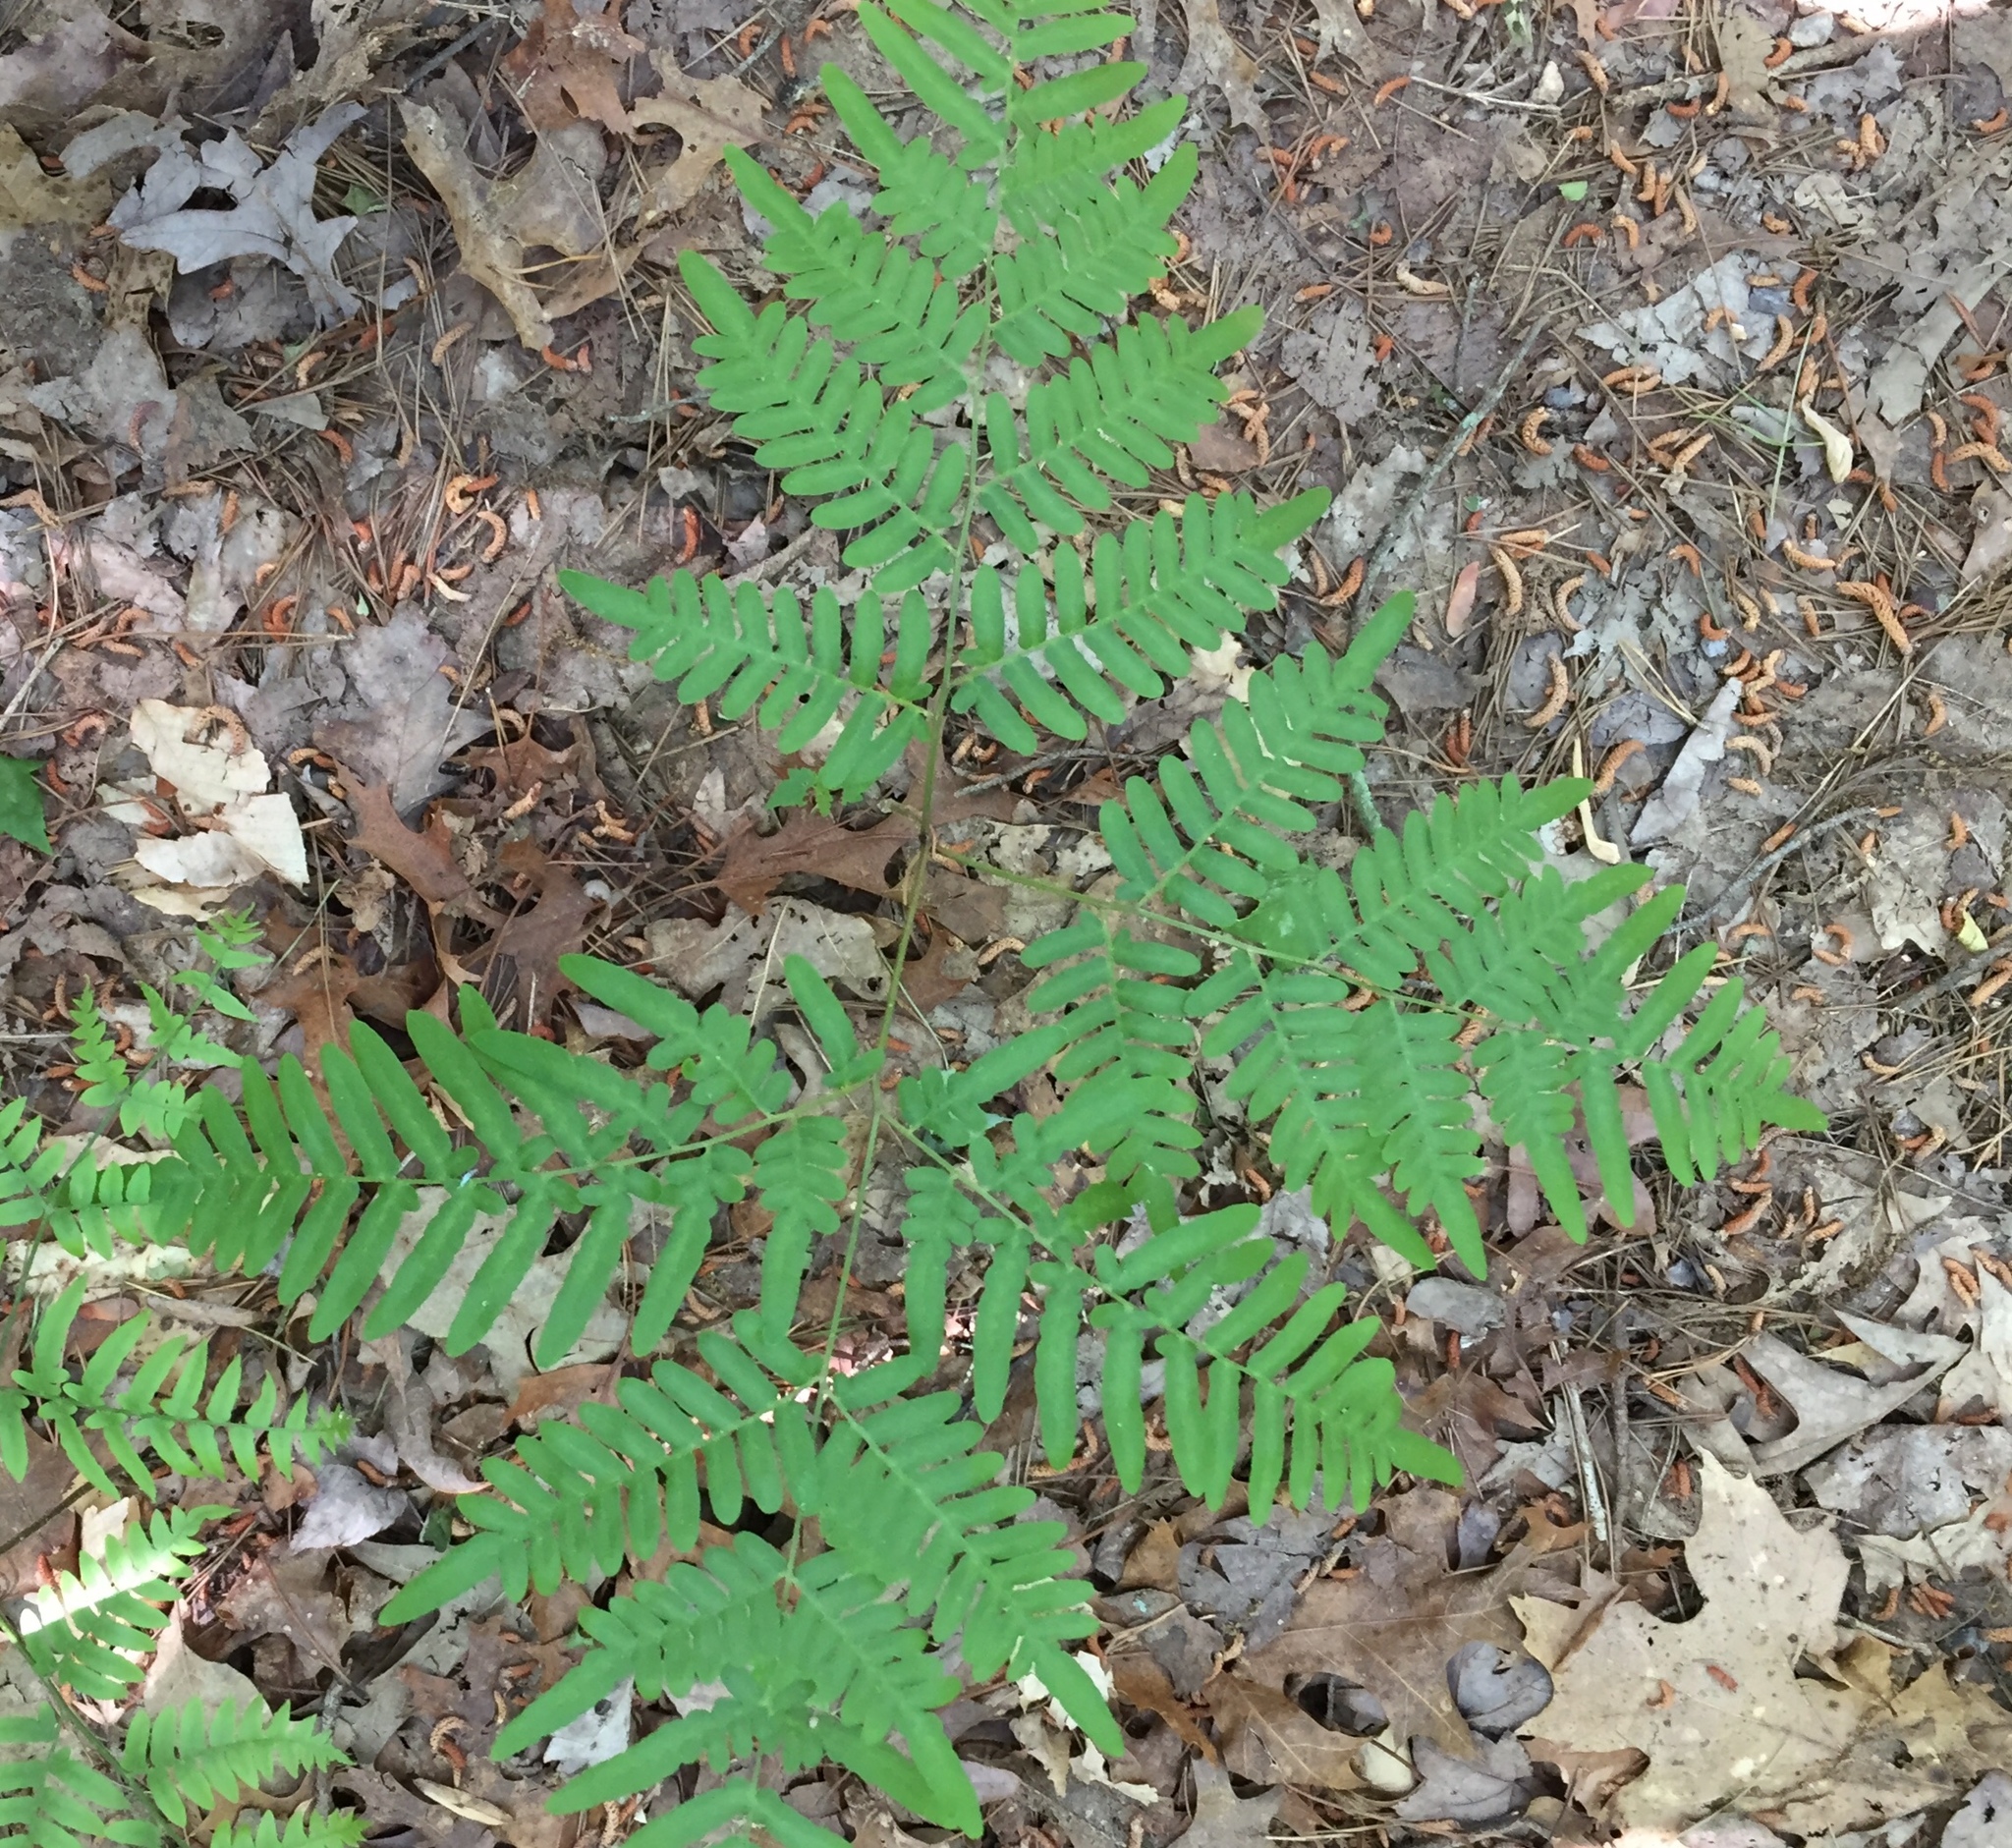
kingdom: Plantae
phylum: Tracheophyta
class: Polypodiopsida
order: Polypodiales
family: Dennstaedtiaceae
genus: Pteridium
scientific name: Pteridium aquilinum
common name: Bracken
